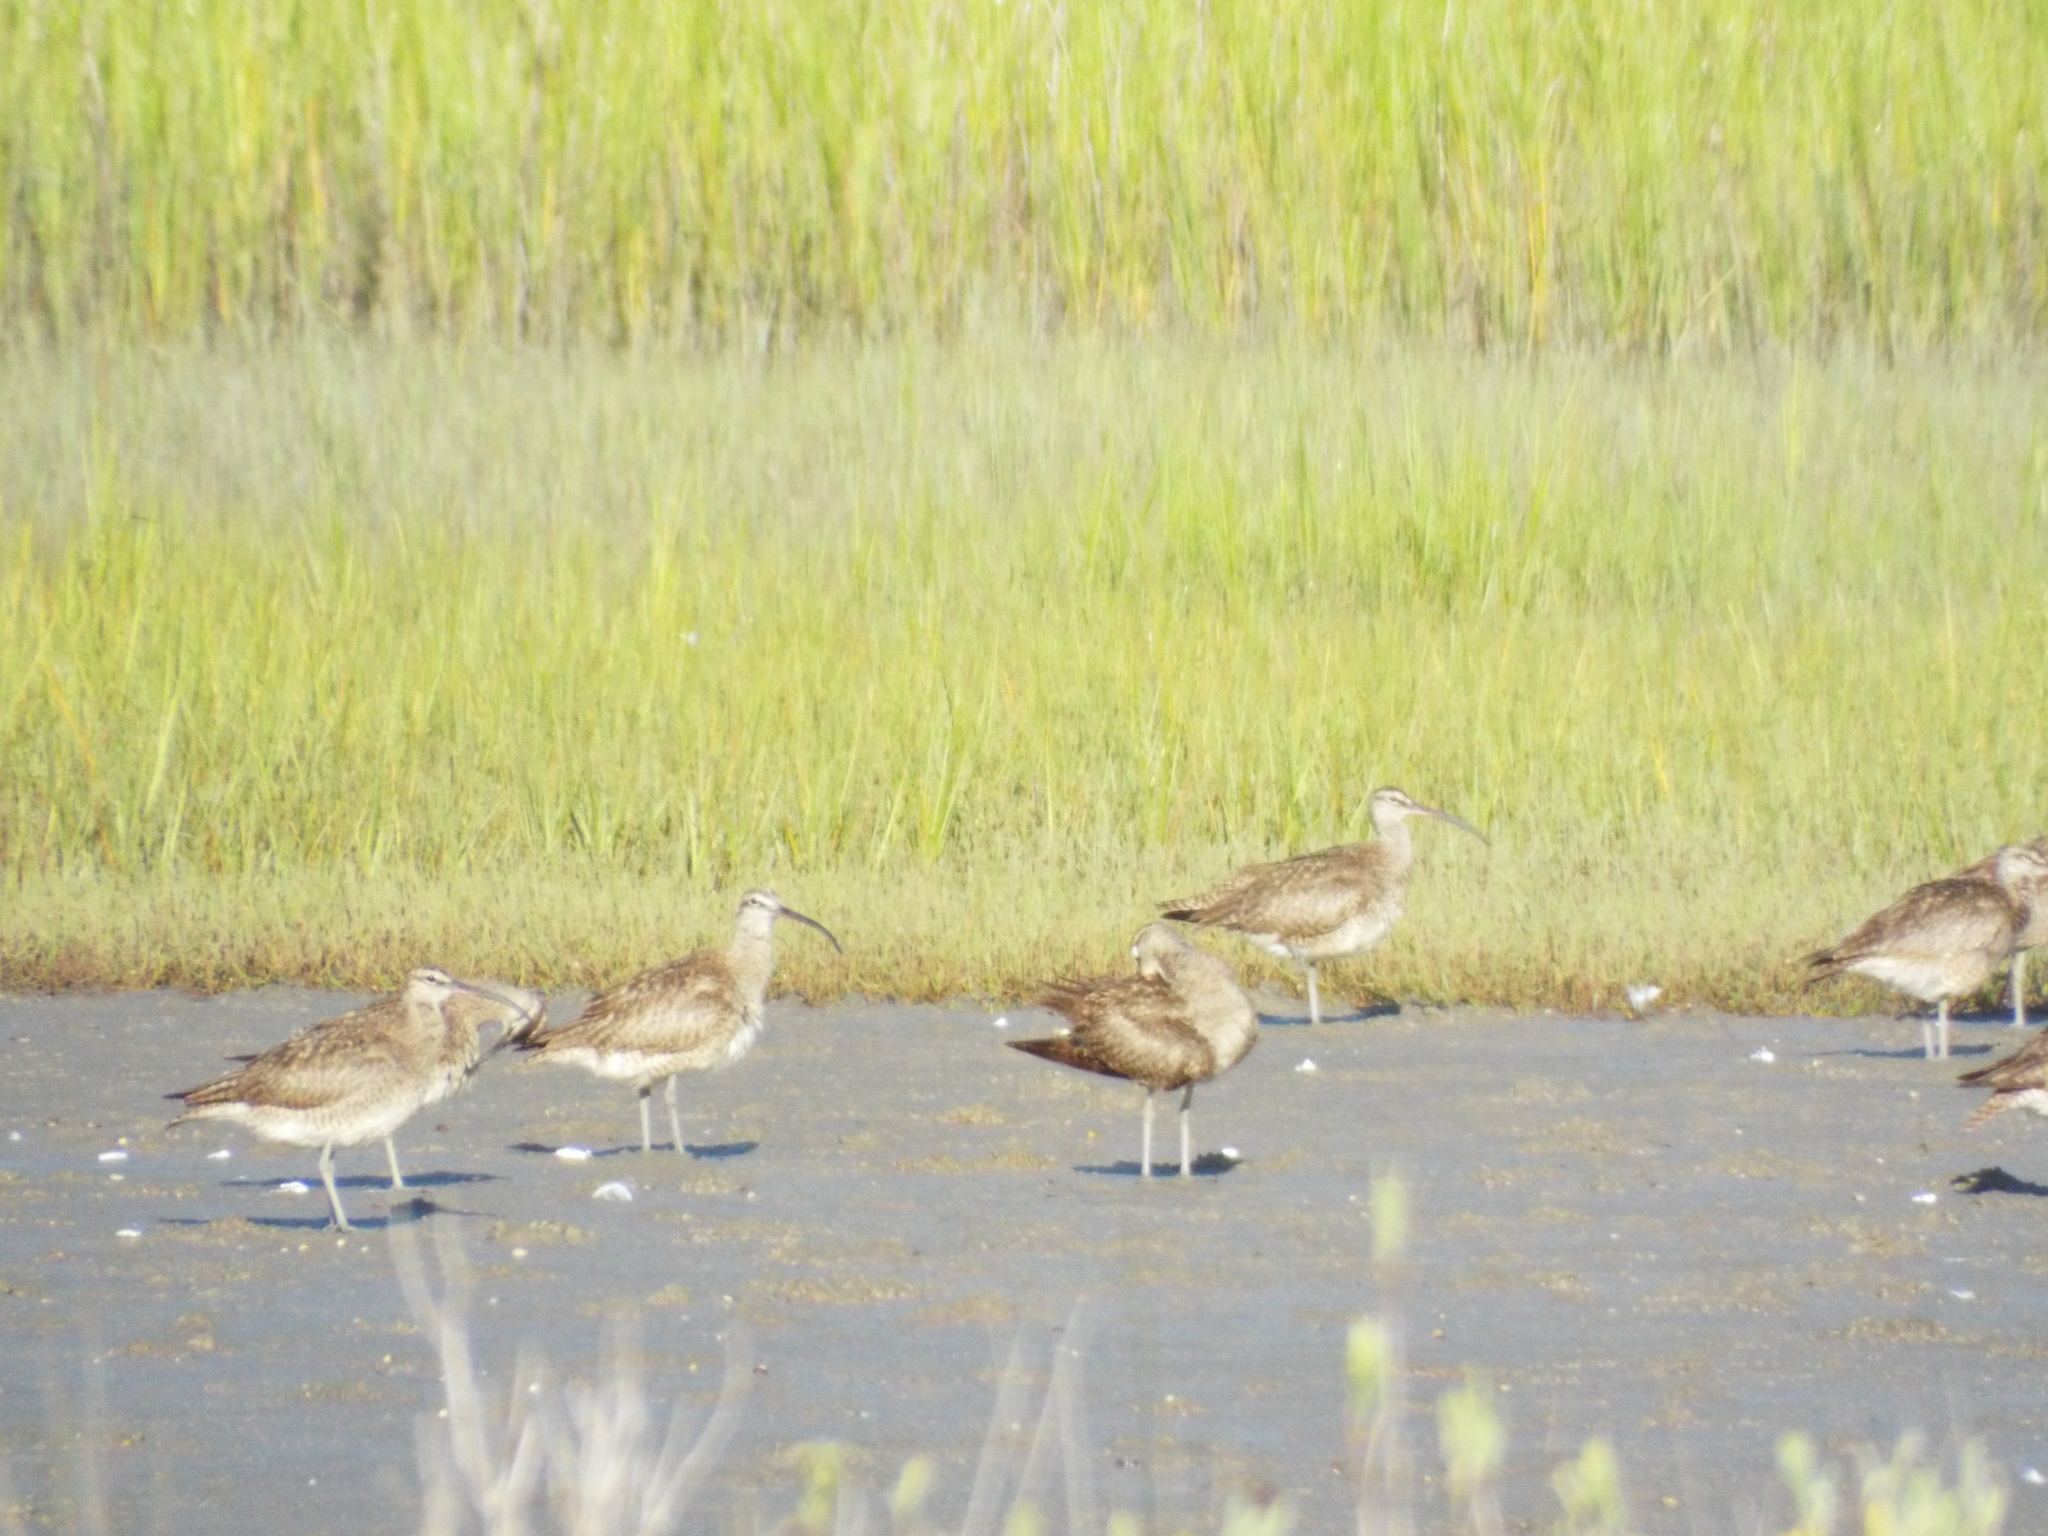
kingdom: Animalia
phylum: Chordata
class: Aves
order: Charadriiformes
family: Scolopacidae
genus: Numenius
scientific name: Numenius phaeopus
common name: Whimbrel
